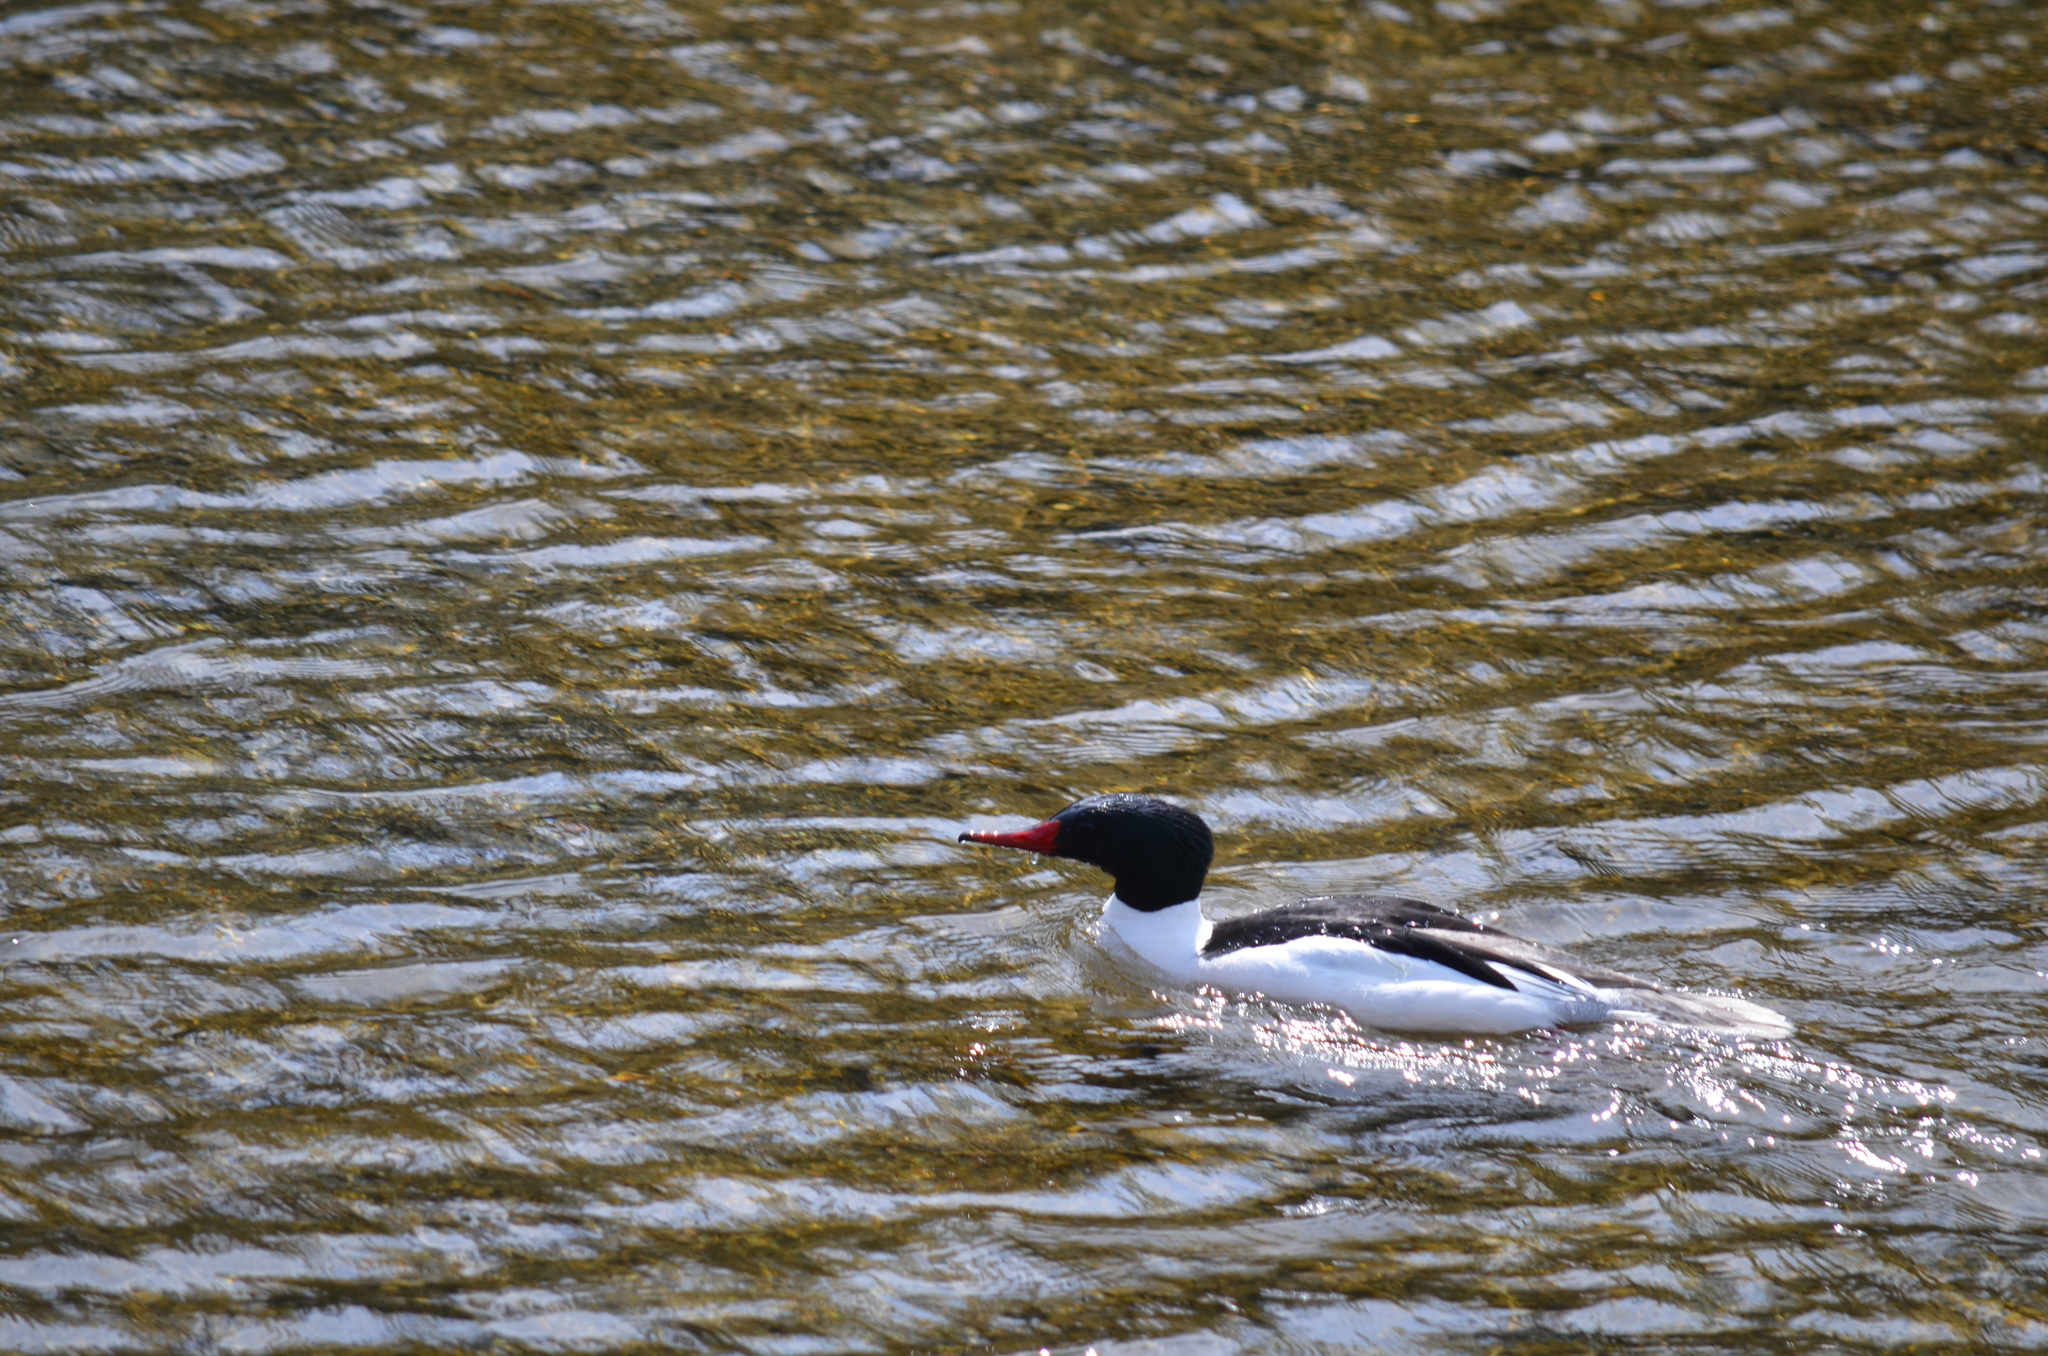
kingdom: Animalia
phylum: Chordata
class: Aves
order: Anseriformes
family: Anatidae
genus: Mergus
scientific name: Mergus merganser
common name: Common merganser
